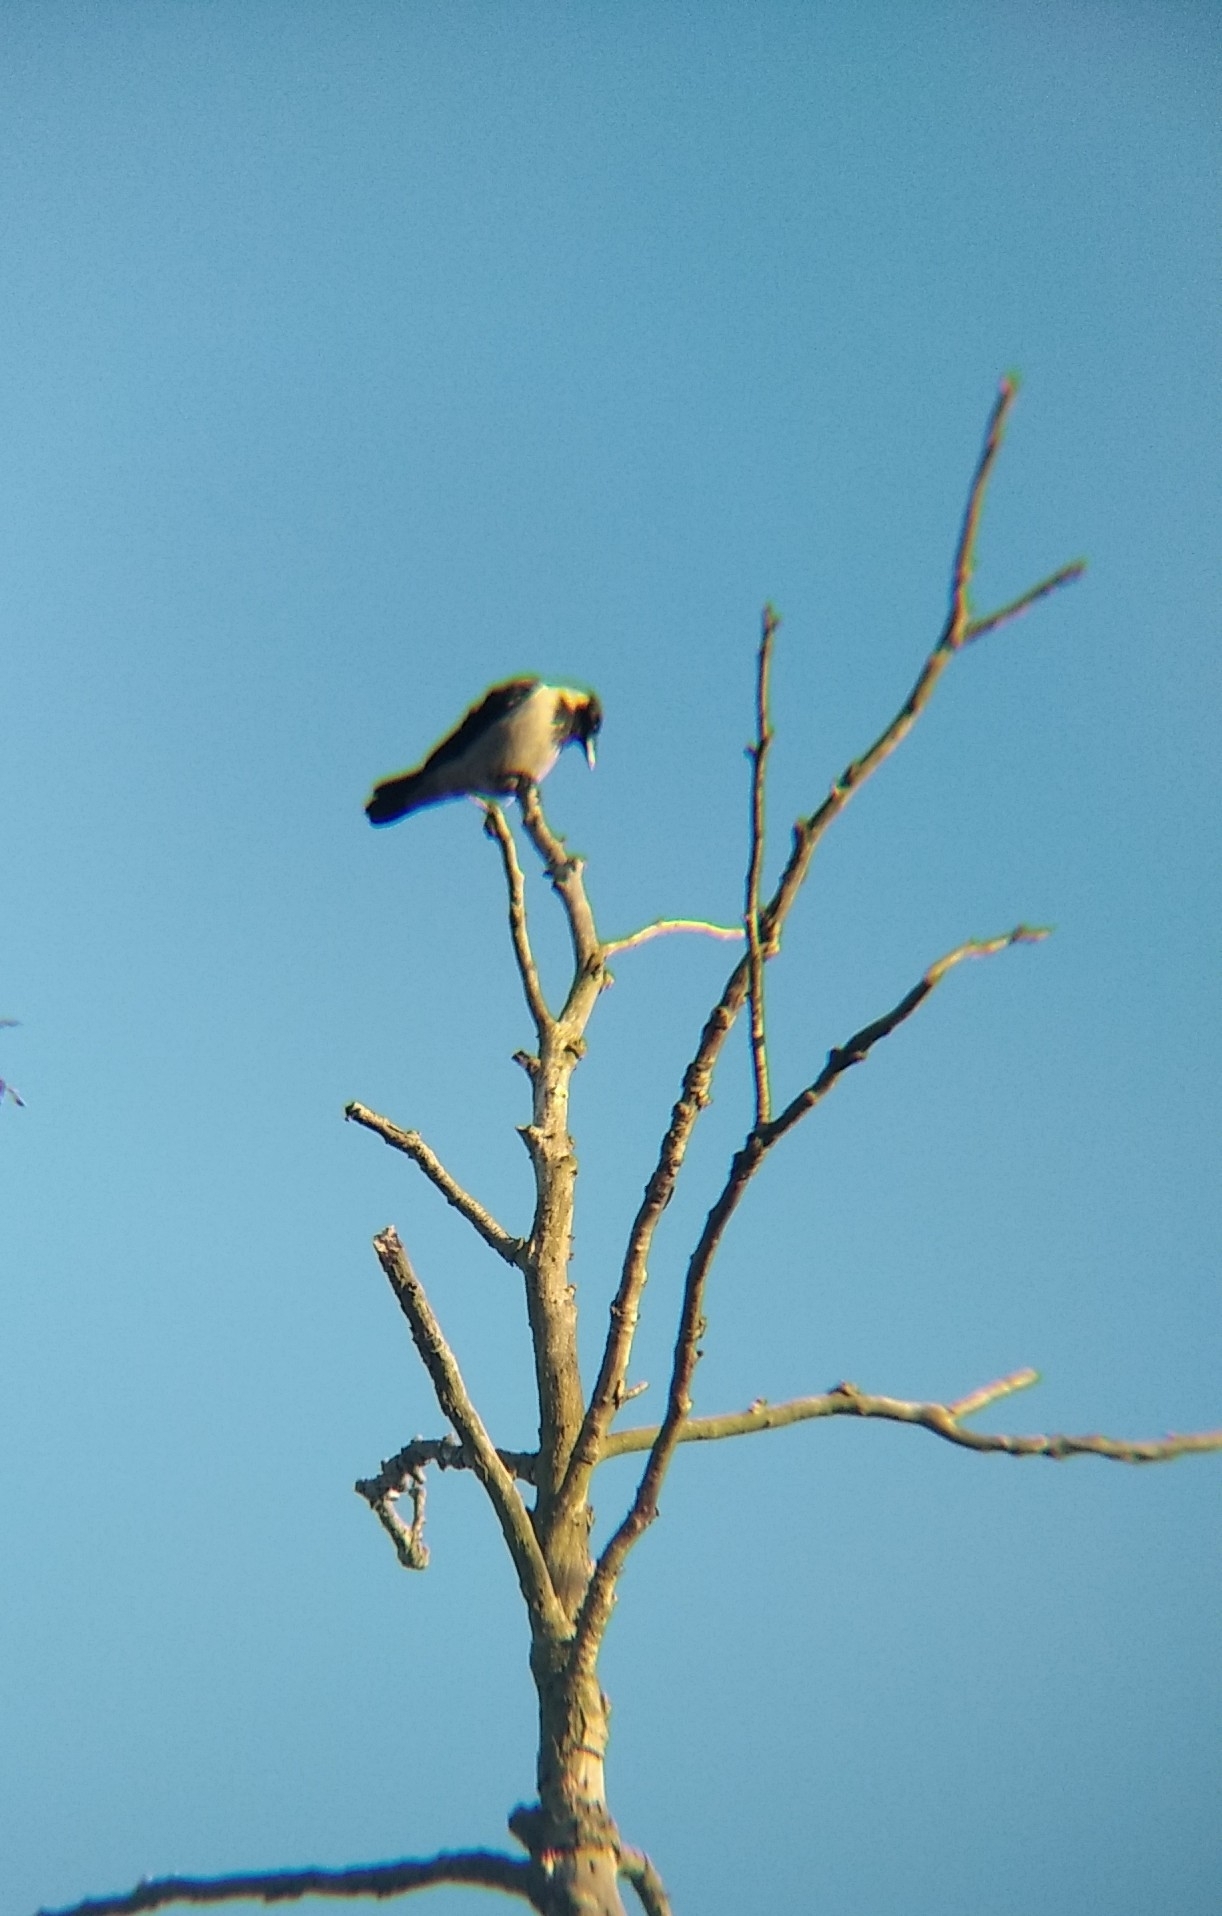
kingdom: Animalia
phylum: Chordata
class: Aves
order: Passeriformes
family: Corvidae
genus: Corvus
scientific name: Corvus cornix
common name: Hooded crow
